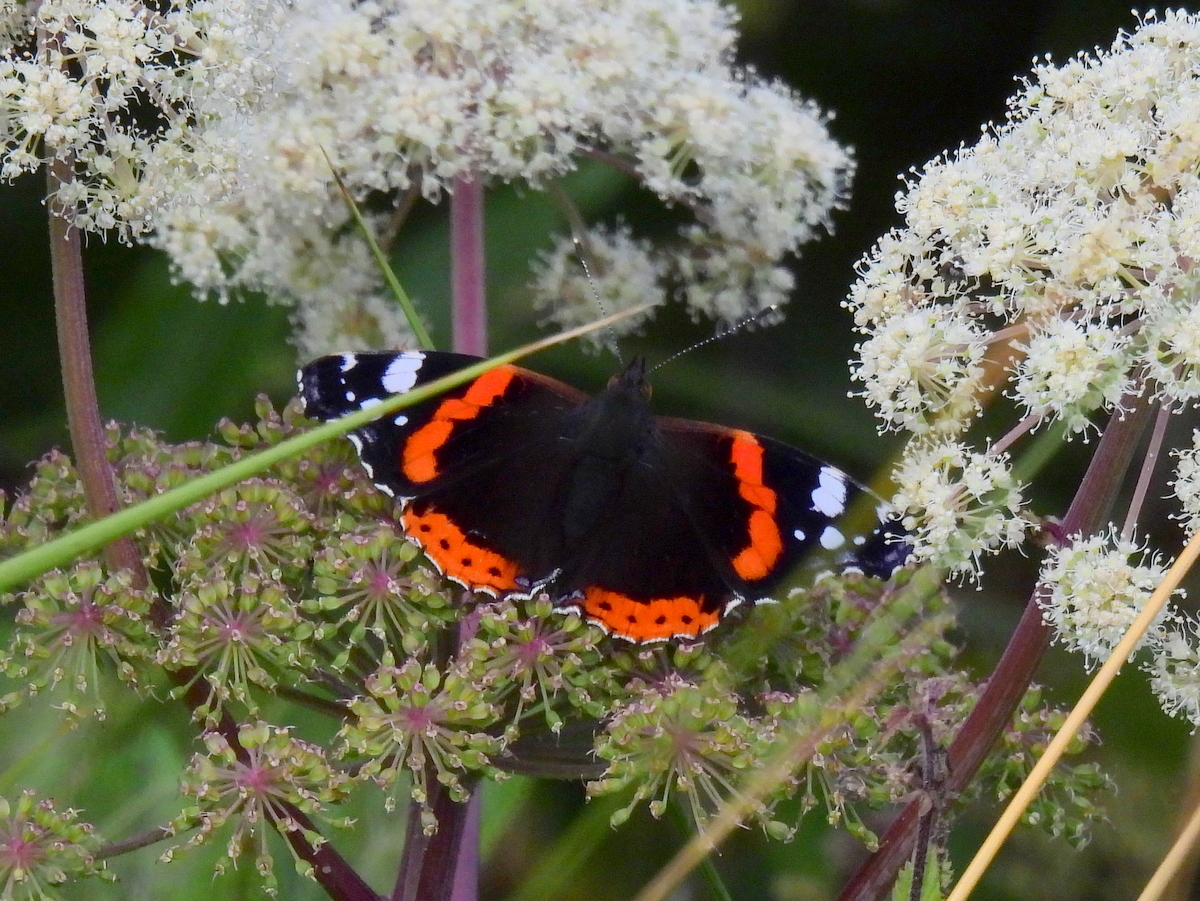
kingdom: Animalia
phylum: Arthropoda
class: Insecta
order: Lepidoptera
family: Nymphalidae
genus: Vanessa
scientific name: Vanessa atalanta
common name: Red admiral
